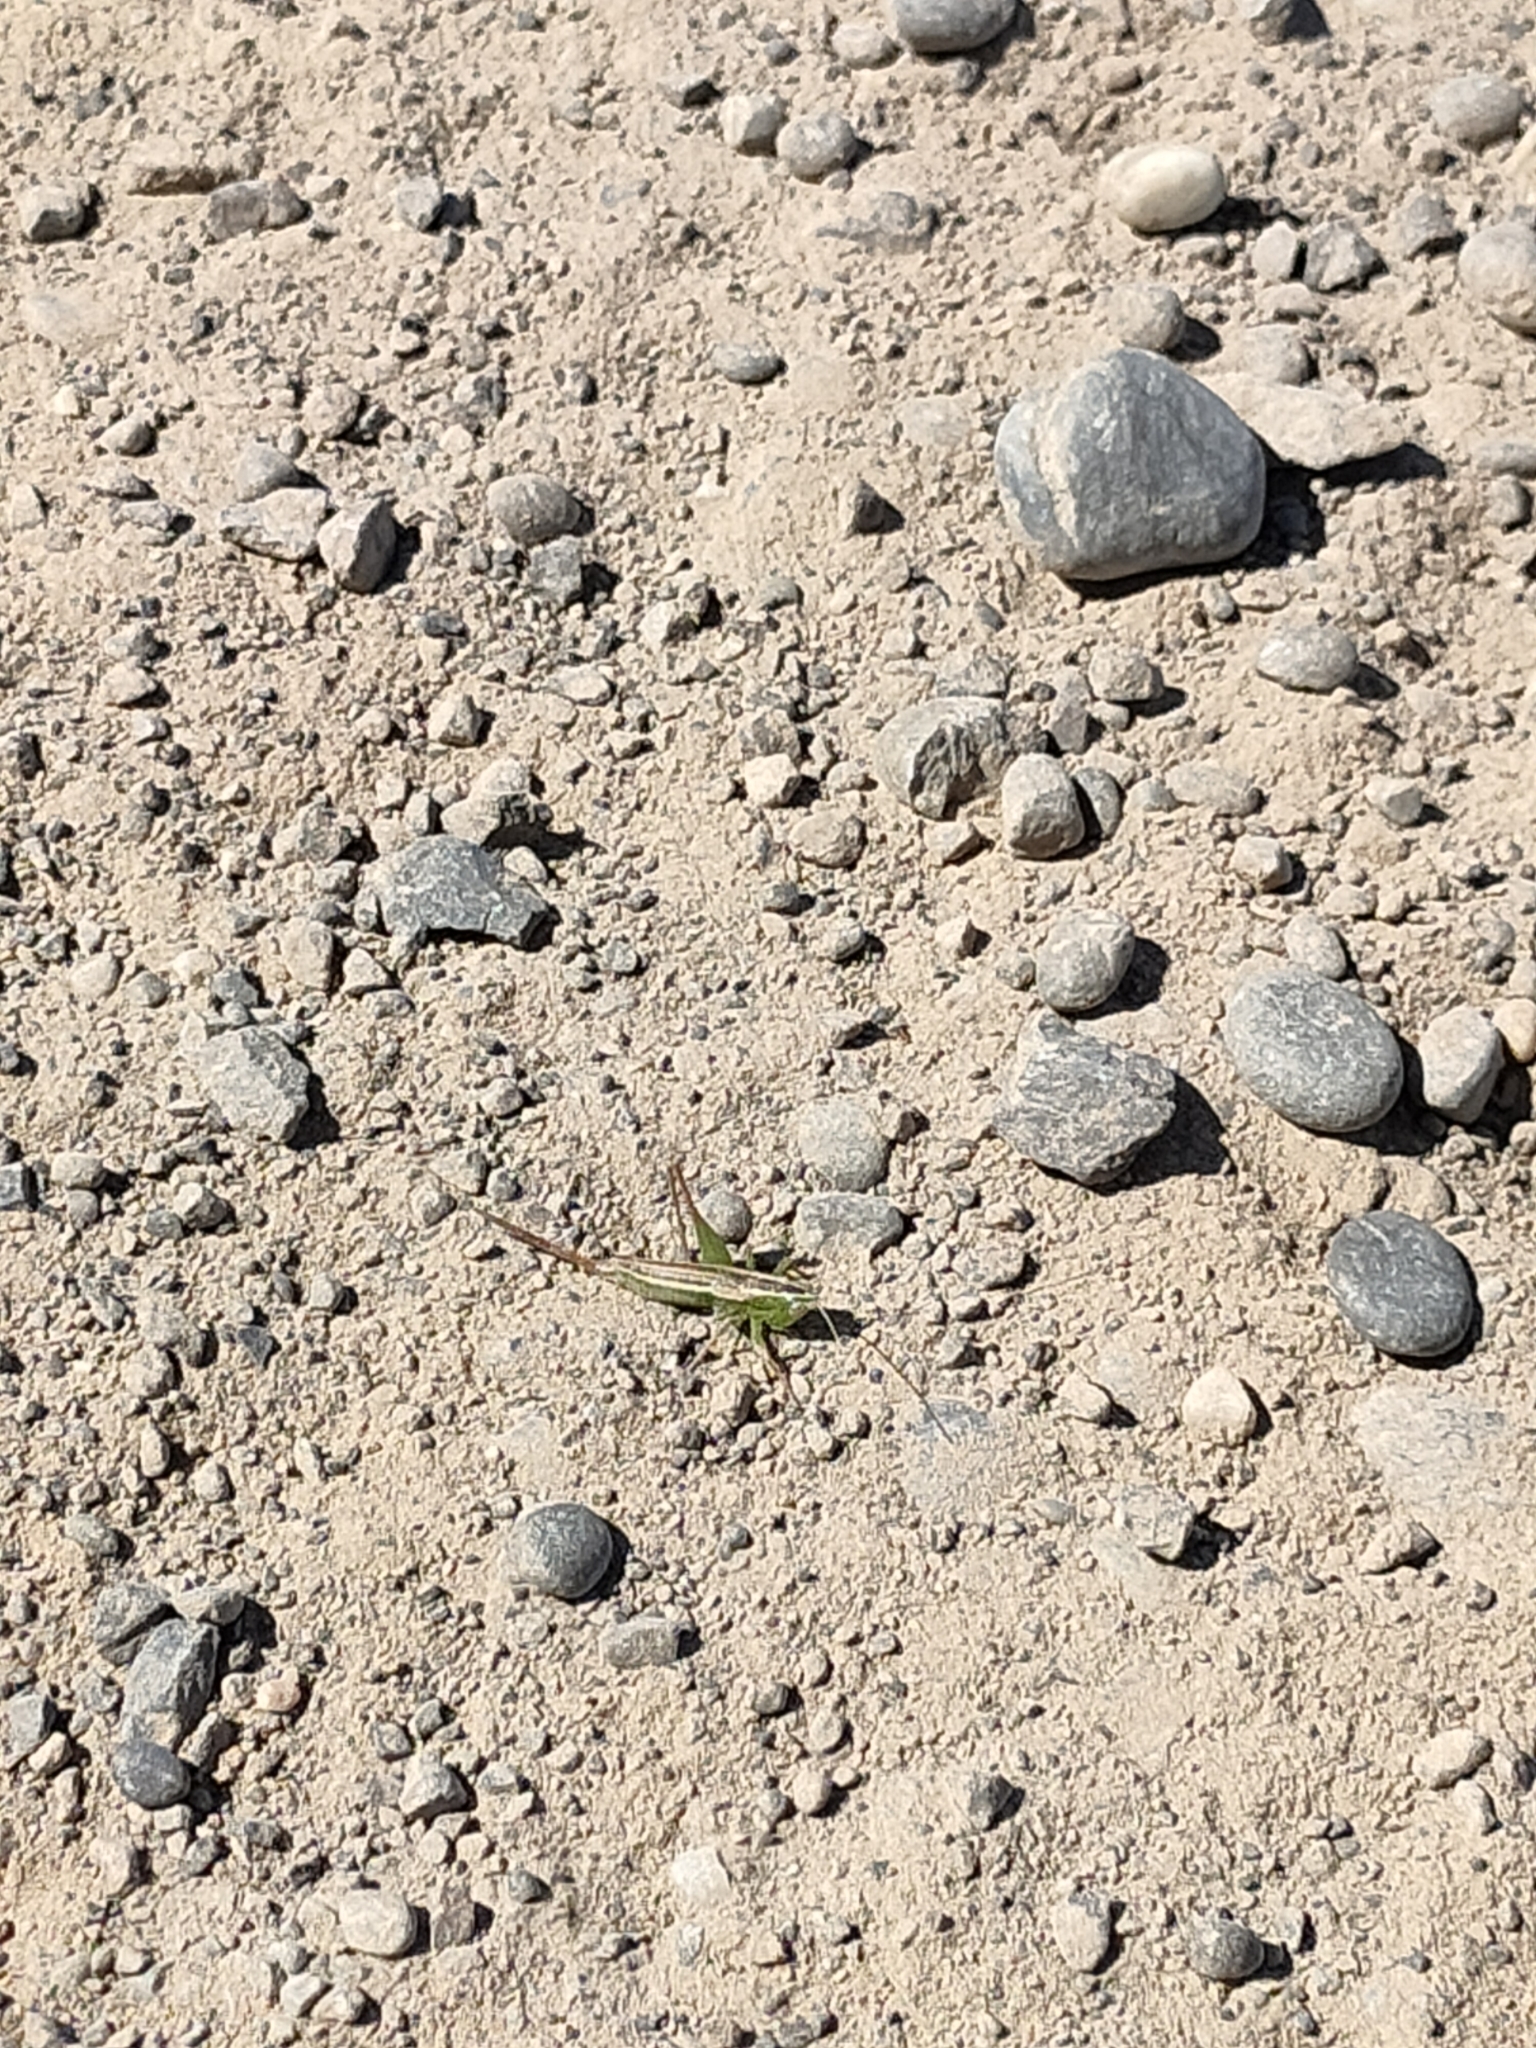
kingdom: Animalia
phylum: Arthropoda
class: Insecta
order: Orthoptera
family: Tettigoniidae
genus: Conocephalus
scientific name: Conocephalus bilineatus
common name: Small meadow katydid
